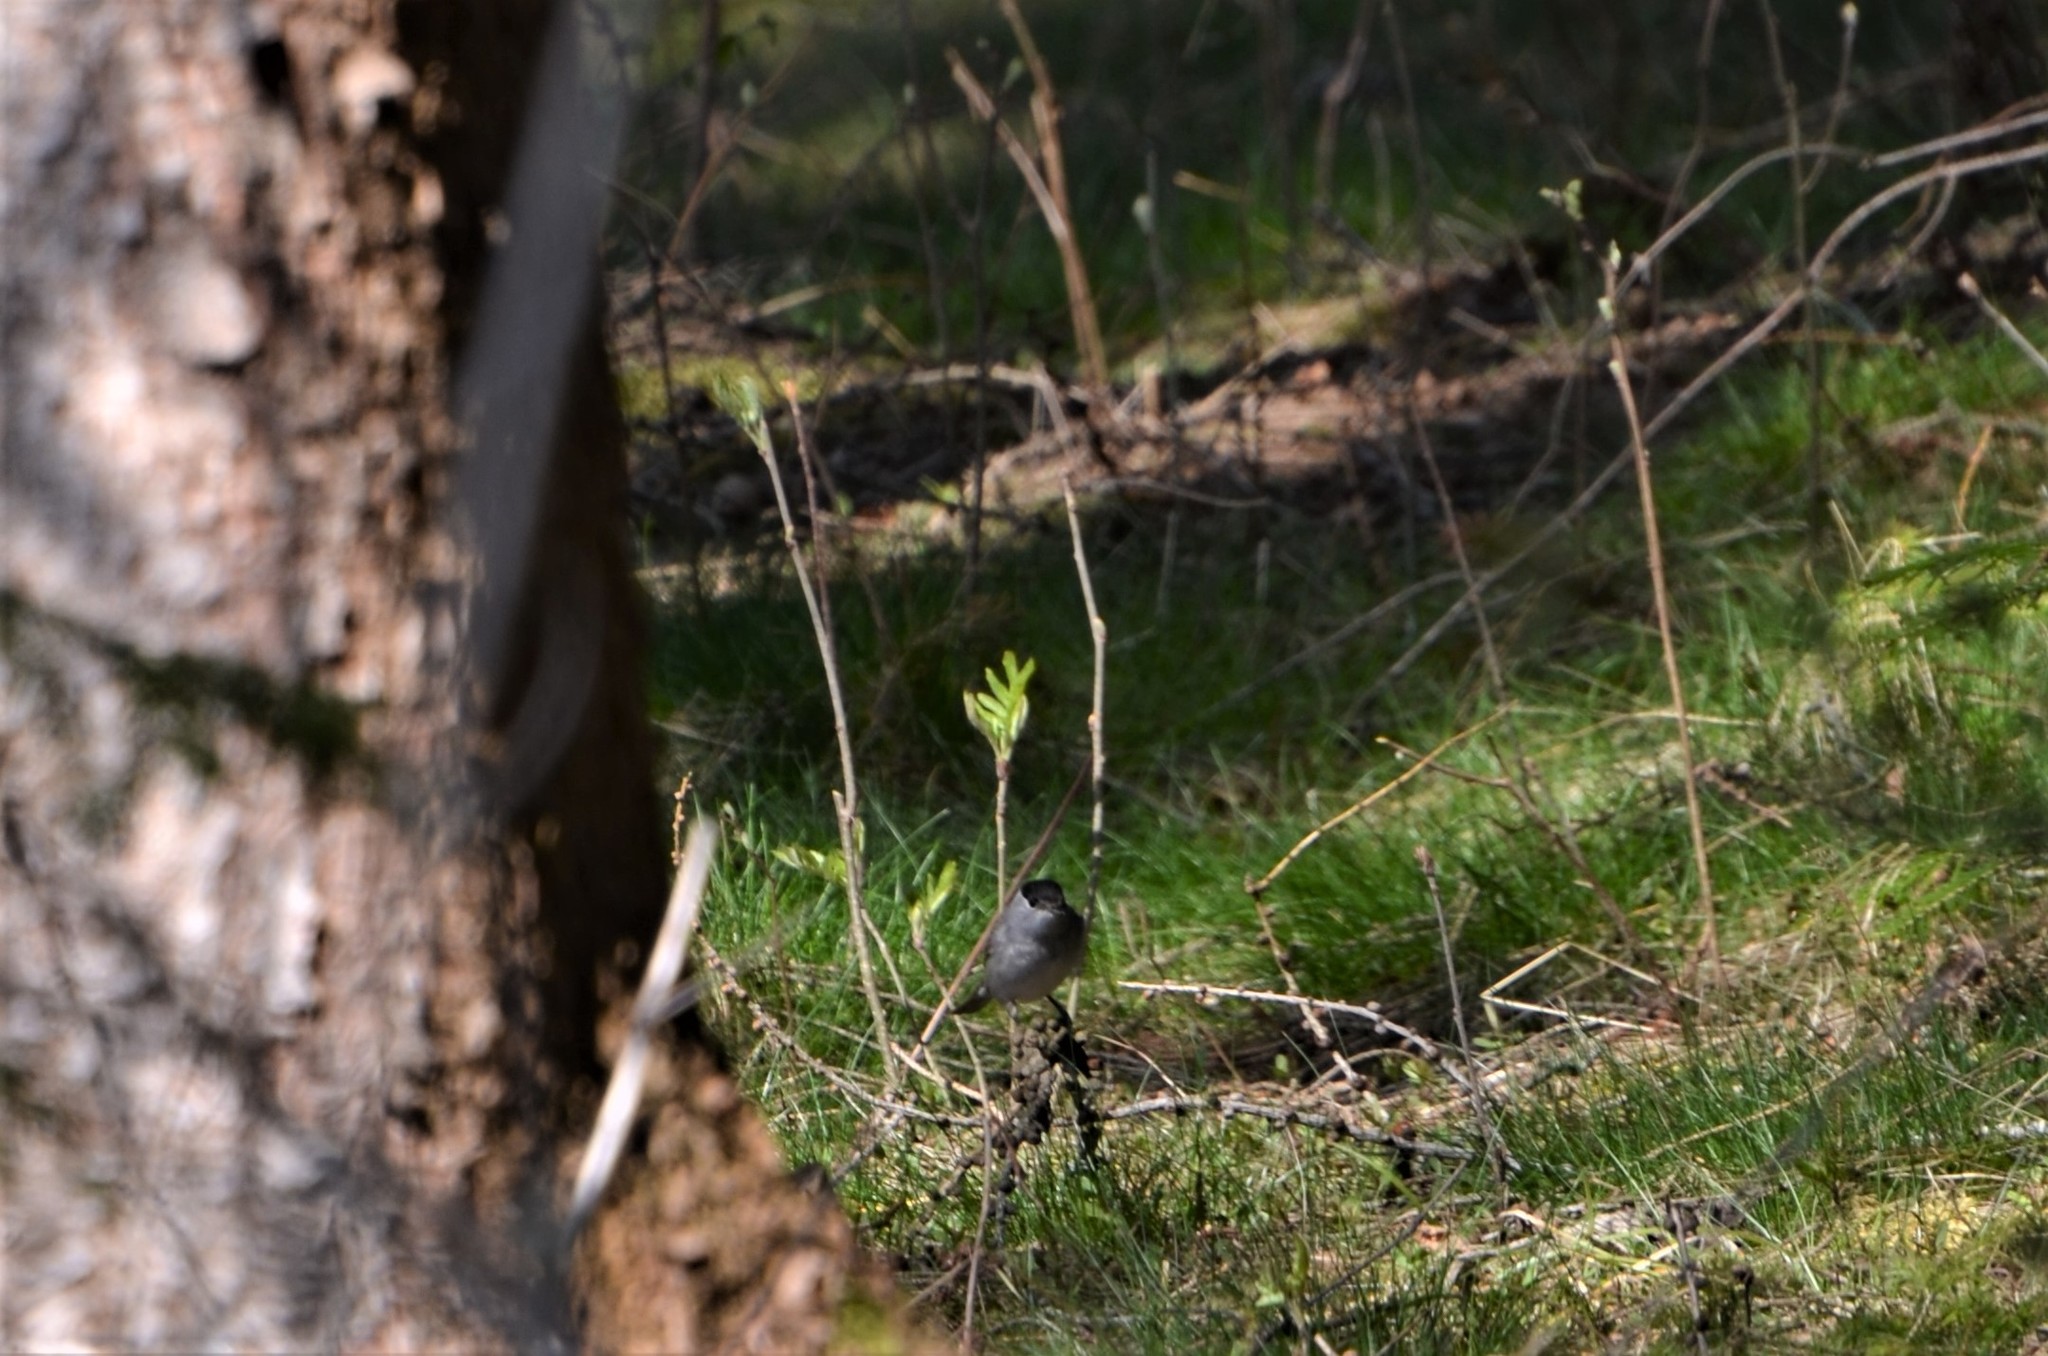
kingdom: Animalia
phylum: Chordata
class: Aves
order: Passeriformes
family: Sylviidae
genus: Sylvia
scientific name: Sylvia atricapilla
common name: Eurasian blackcap
